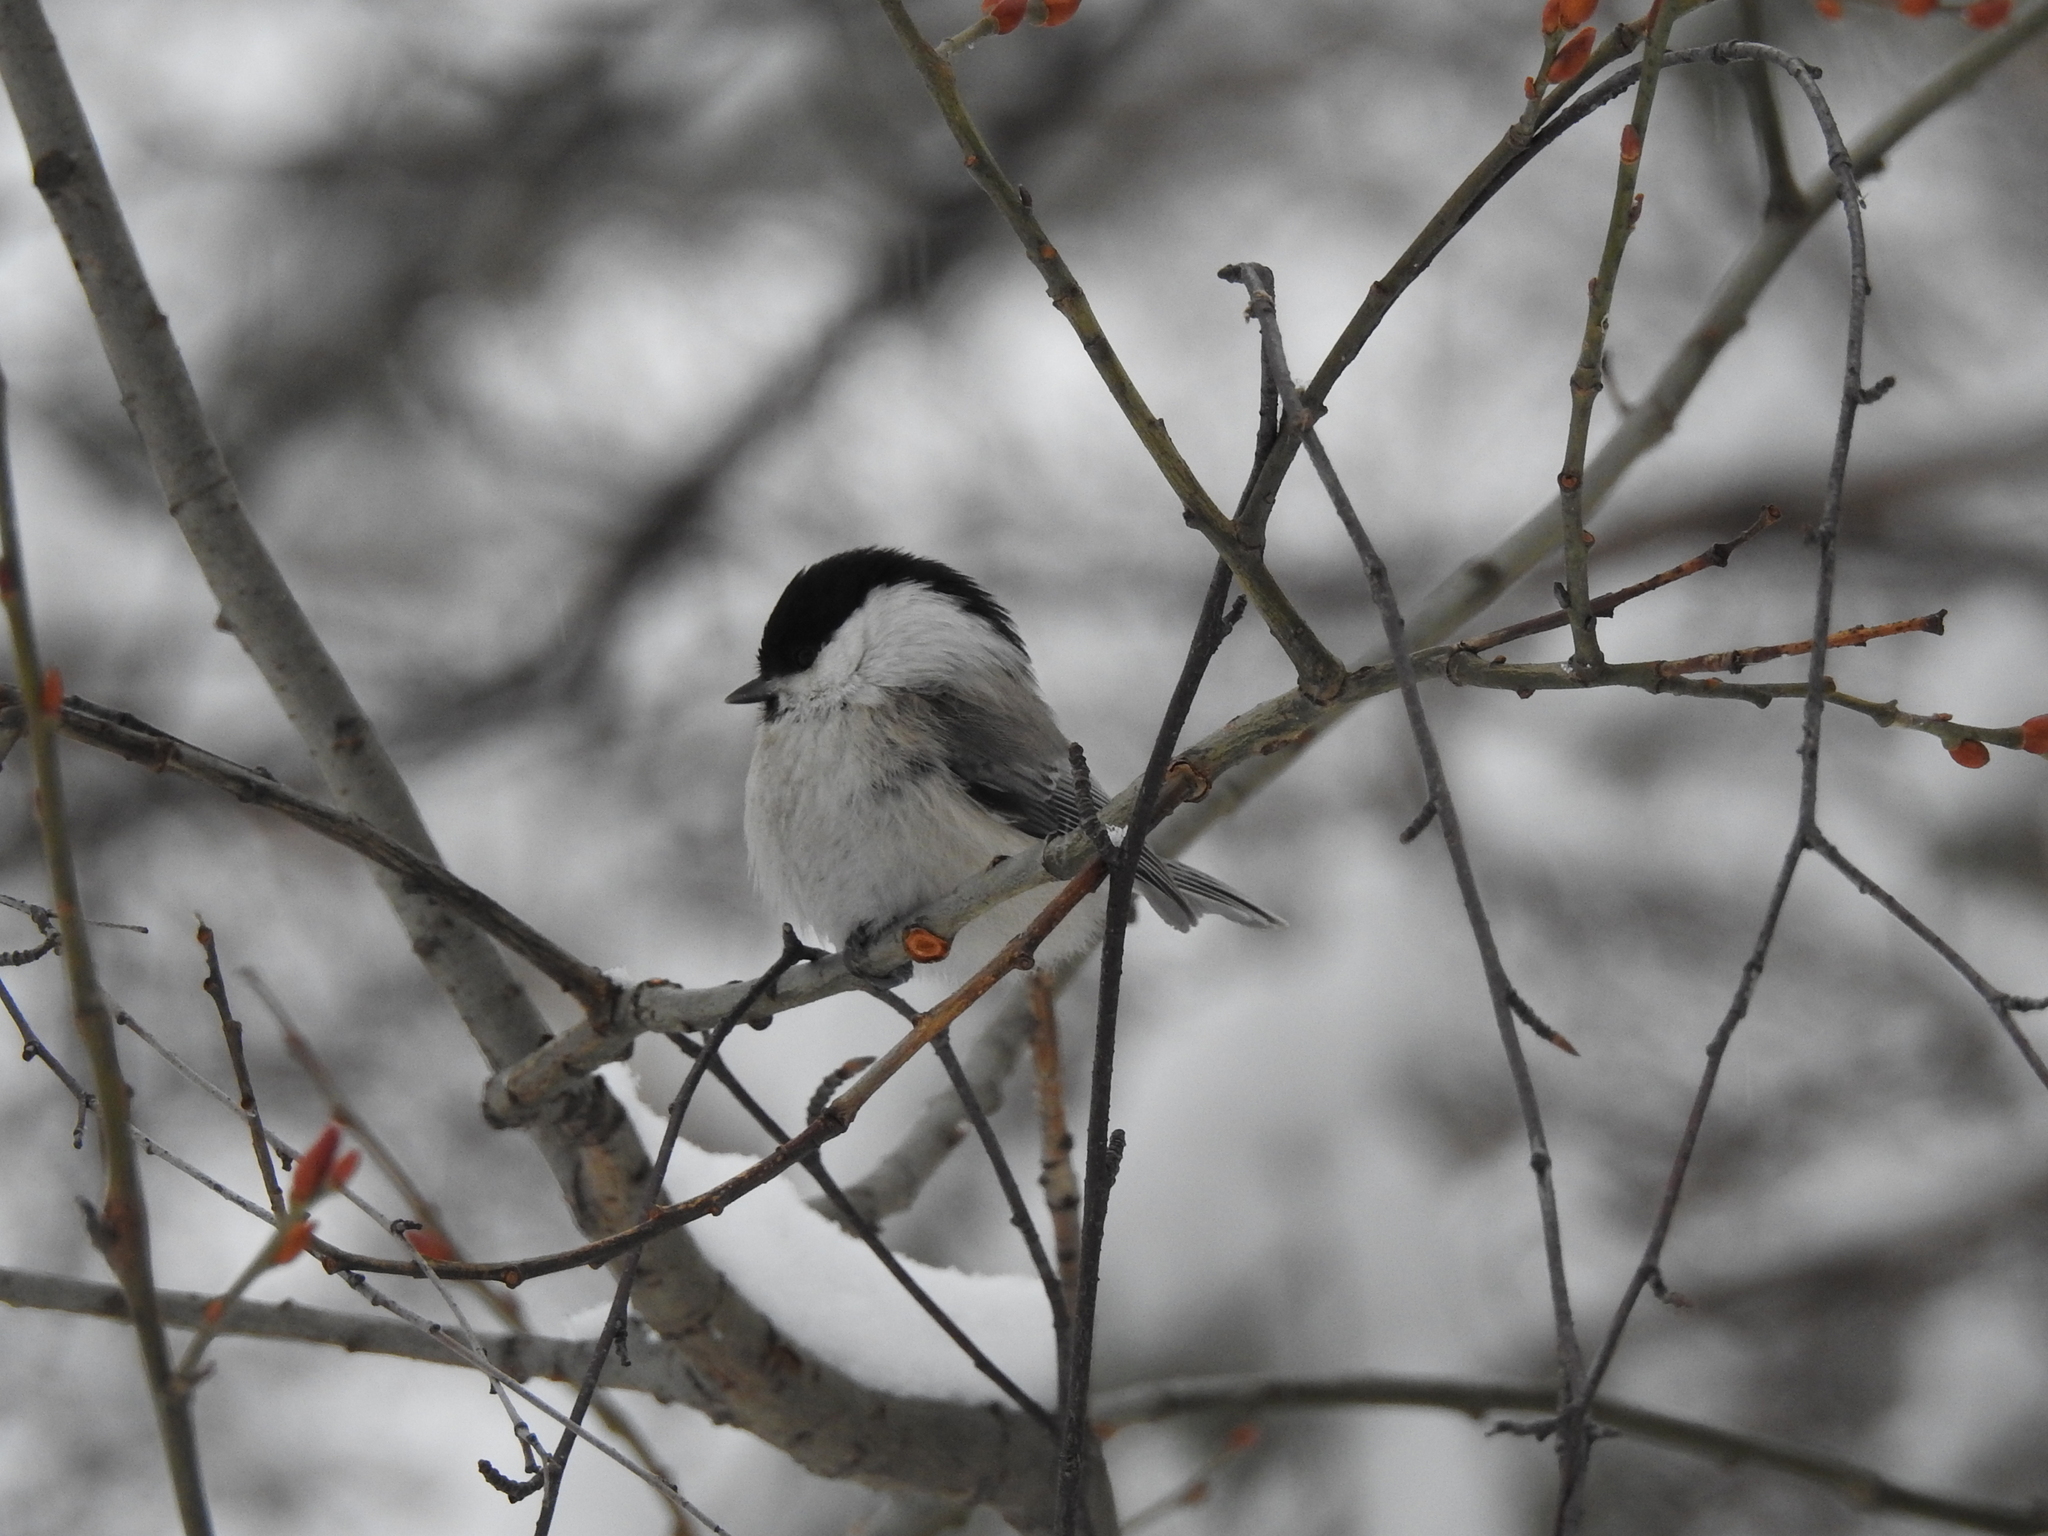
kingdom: Animalia
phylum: Chordata
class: Aves
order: Passeriformes
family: Paridae
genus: Poecile
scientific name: Poecile montanus
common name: Willow tit
